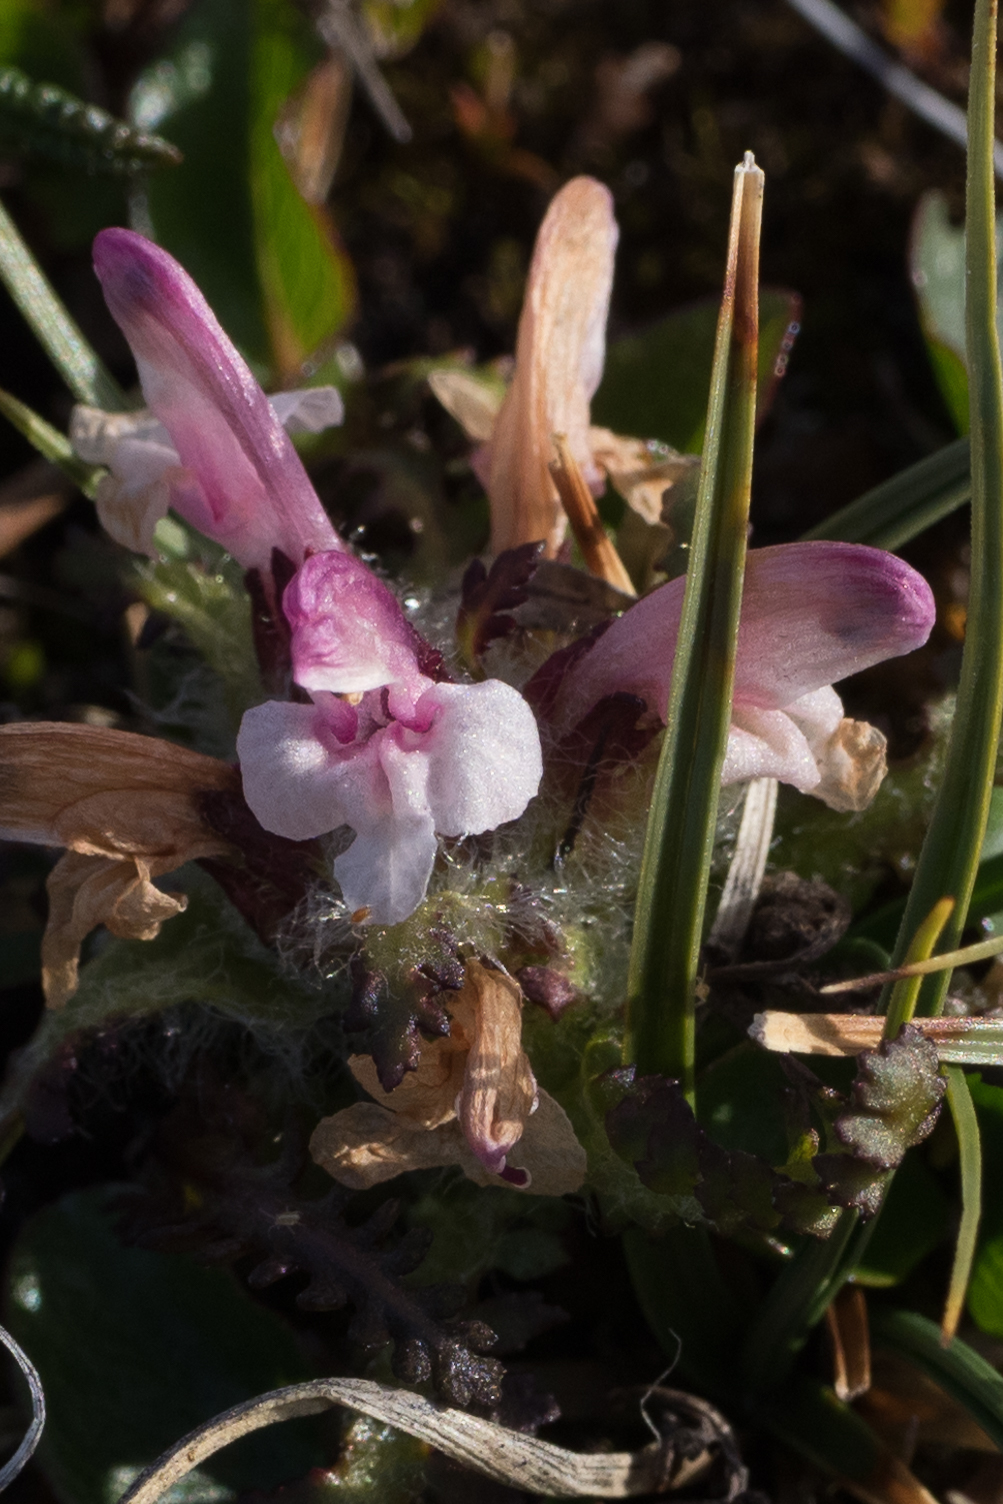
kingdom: Plantae
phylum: Tracheophyta
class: Magnoliopsida
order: Lamiales
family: Orobanchaceae
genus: Pedicularis
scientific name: Pedicularis hirsuta
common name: Hairy lousewort
